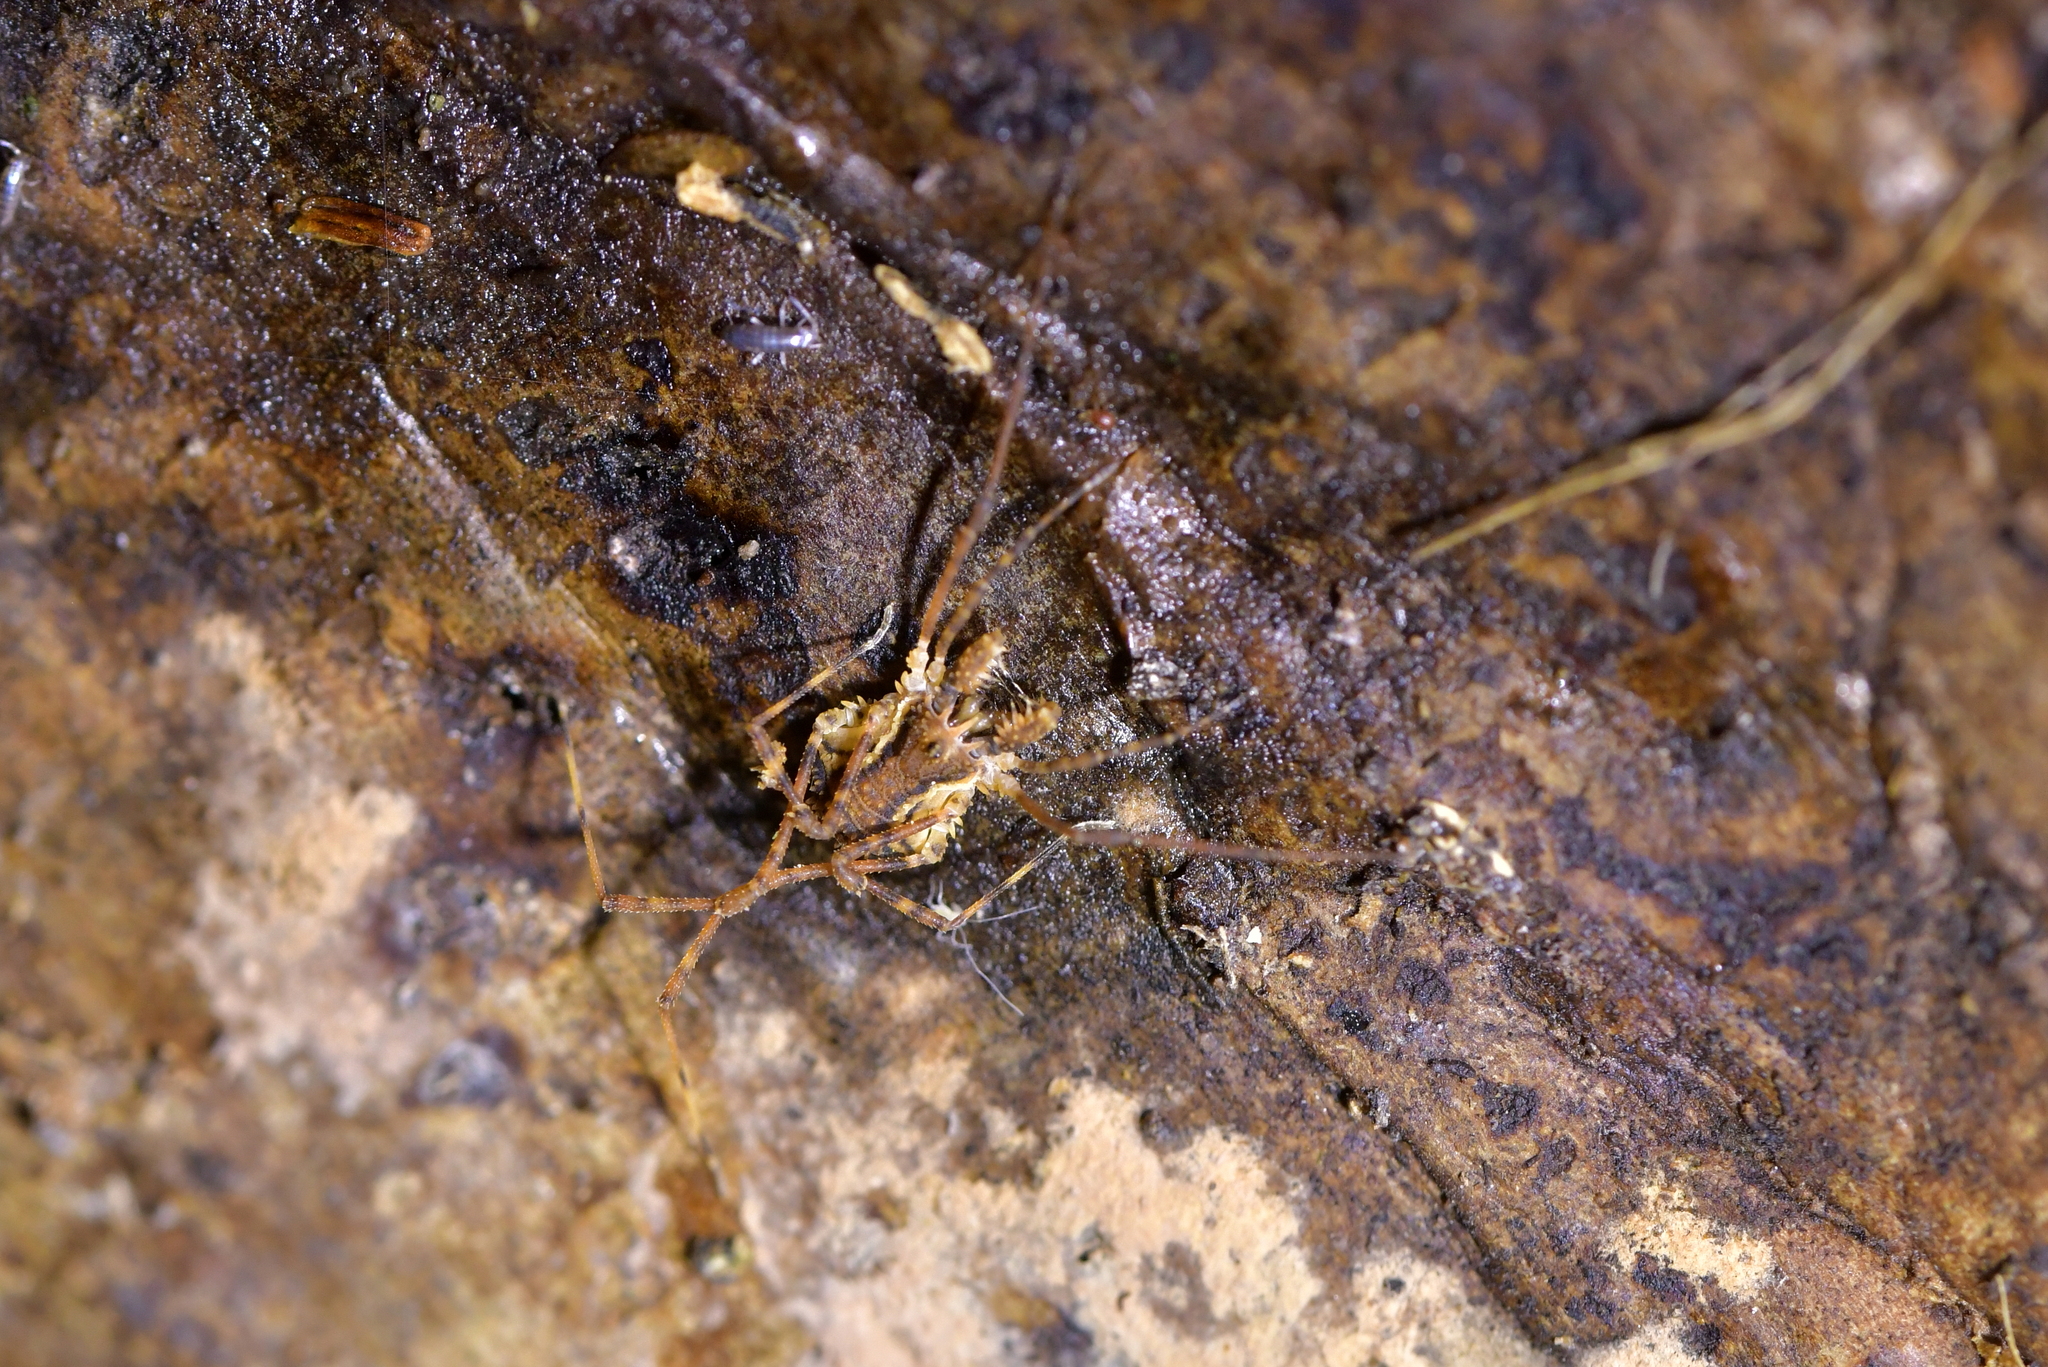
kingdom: Animalia
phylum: Arthropoda
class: Arachnida
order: Opiliones
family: Triaenonychidae
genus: Algidia
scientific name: Algidia chiltoni
